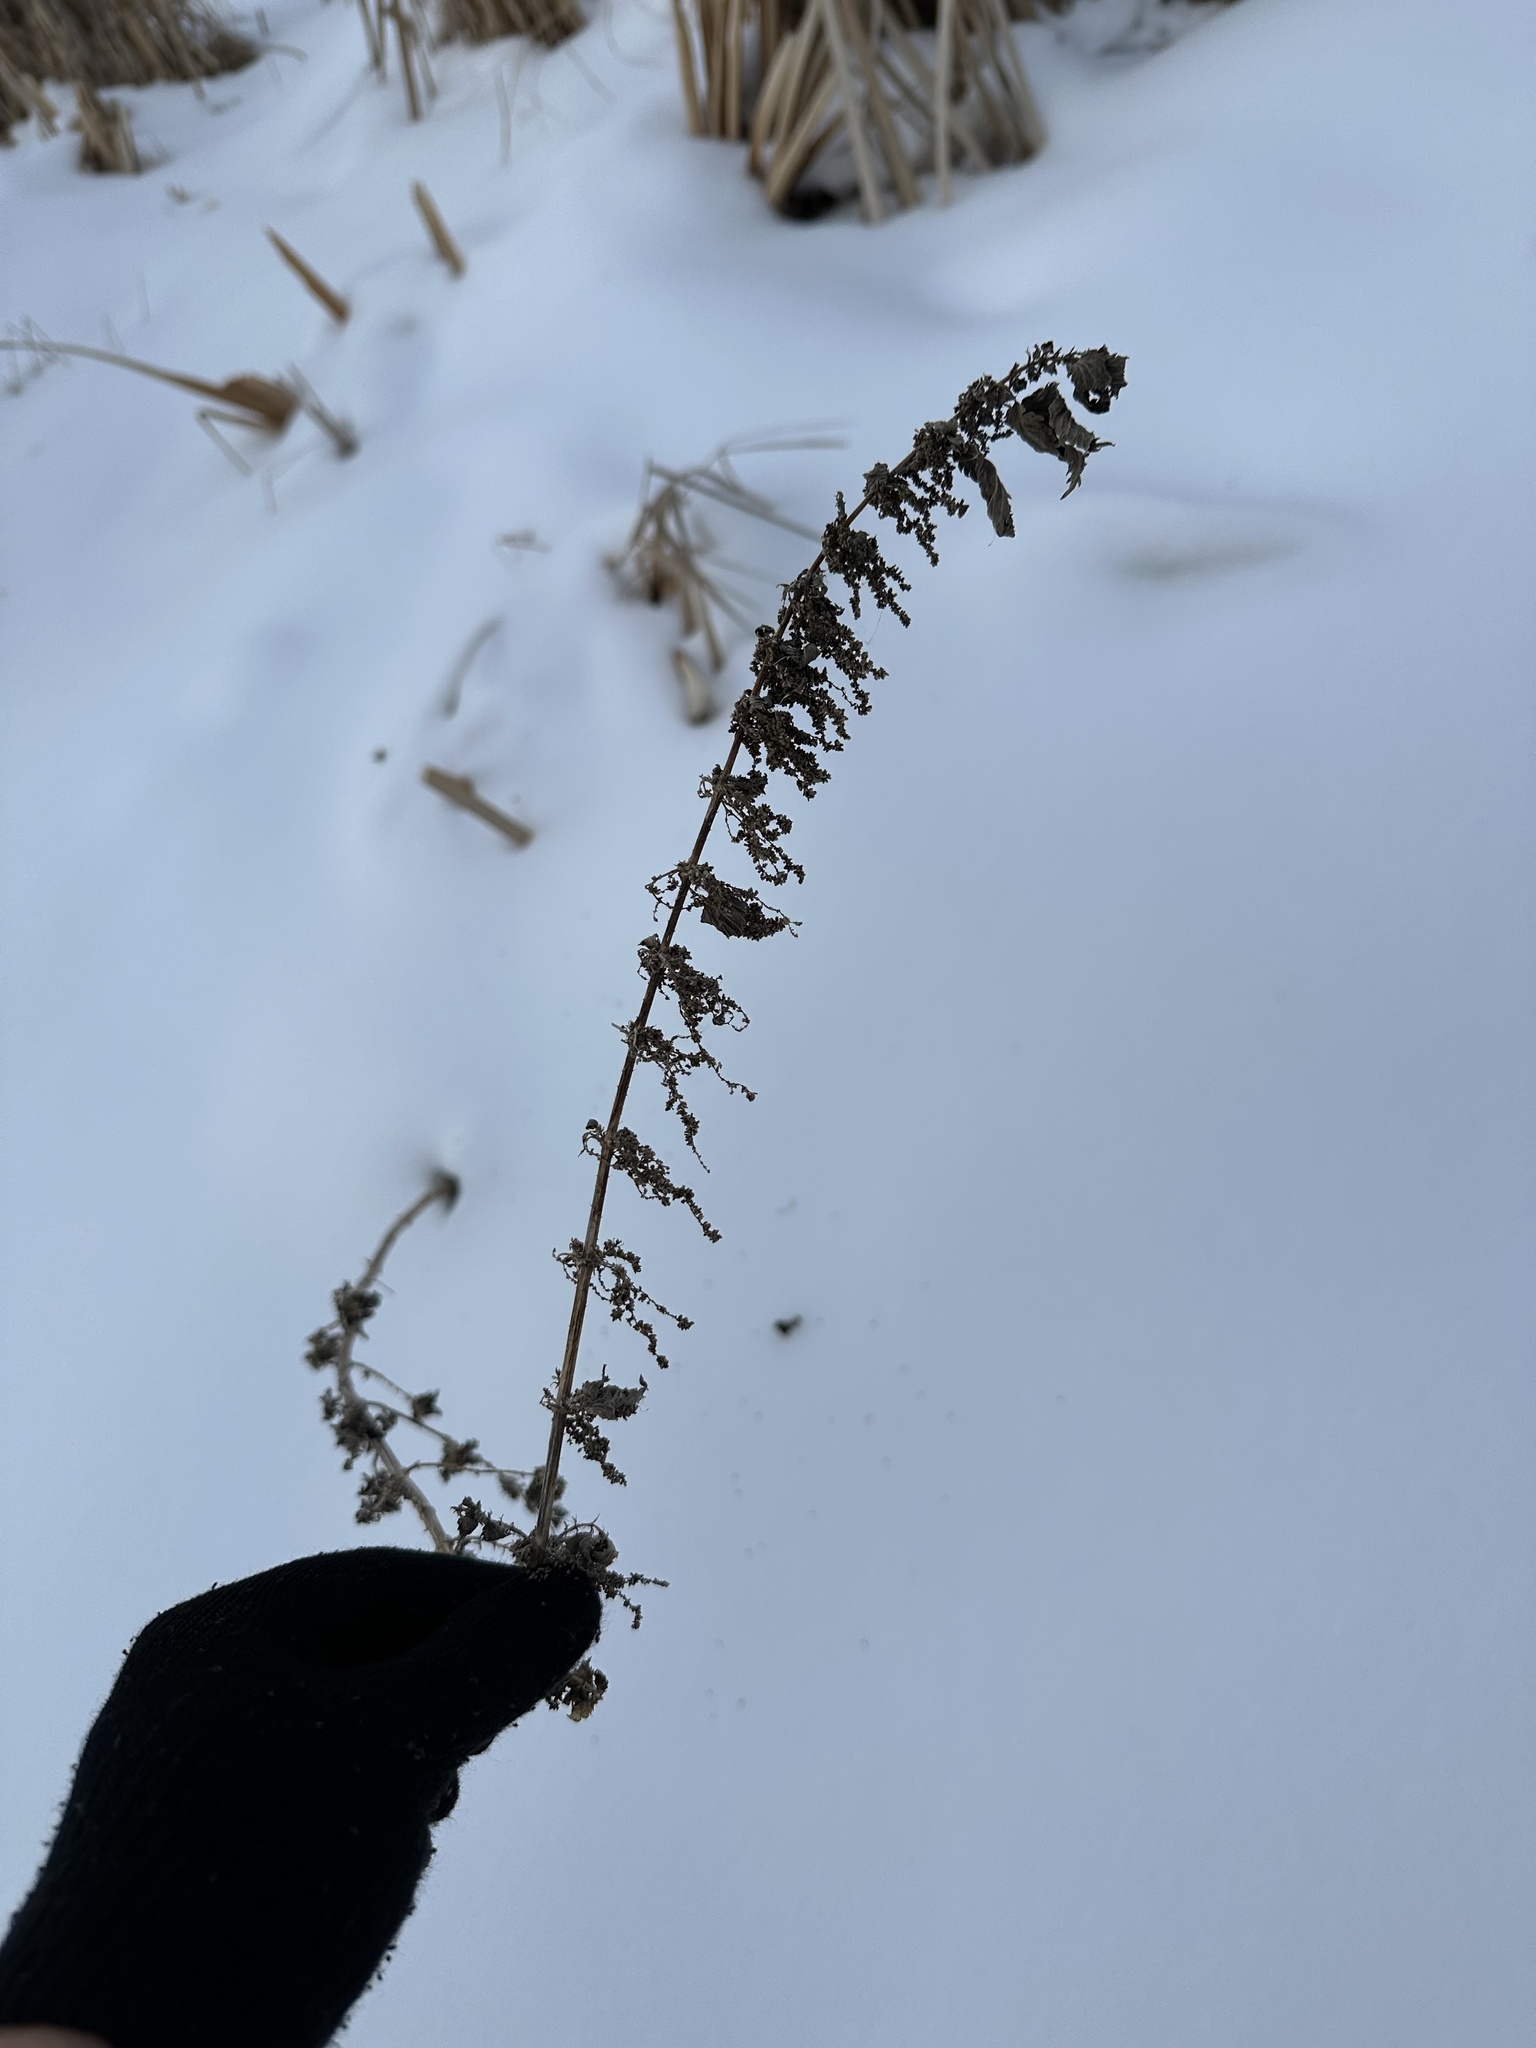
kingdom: Plantae
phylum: Tracheophyta
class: Magnoliopsida
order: Rosales
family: Urticaceae
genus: Urtica
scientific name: Urtica gracilis
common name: Slender stinging nettle
